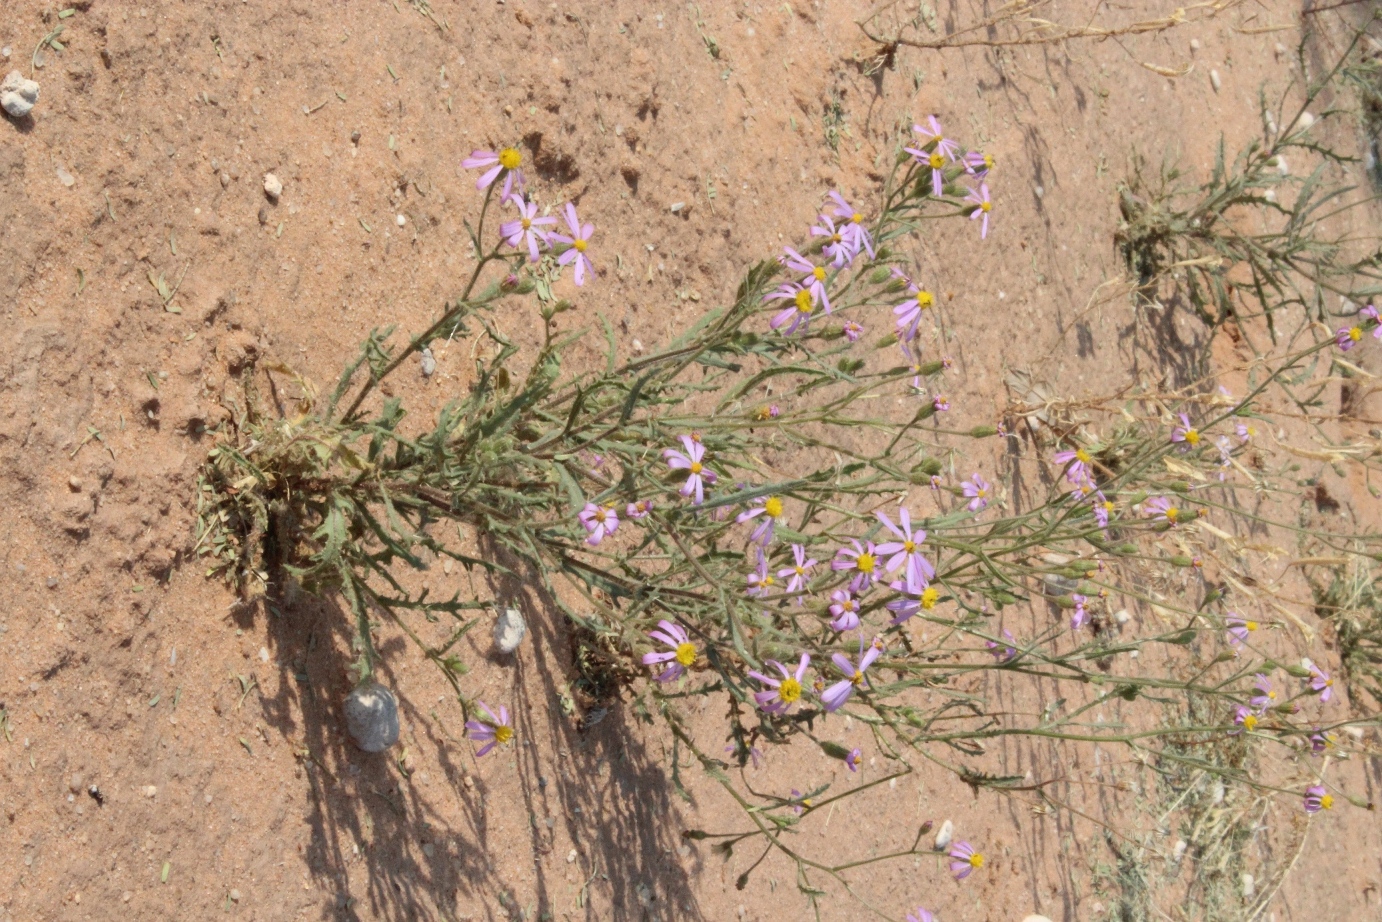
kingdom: Plantae
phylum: Tracheophyta
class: Magnoliopsida
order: Asterales
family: Asteraceae
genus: Senecio
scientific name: Senecio eenii
